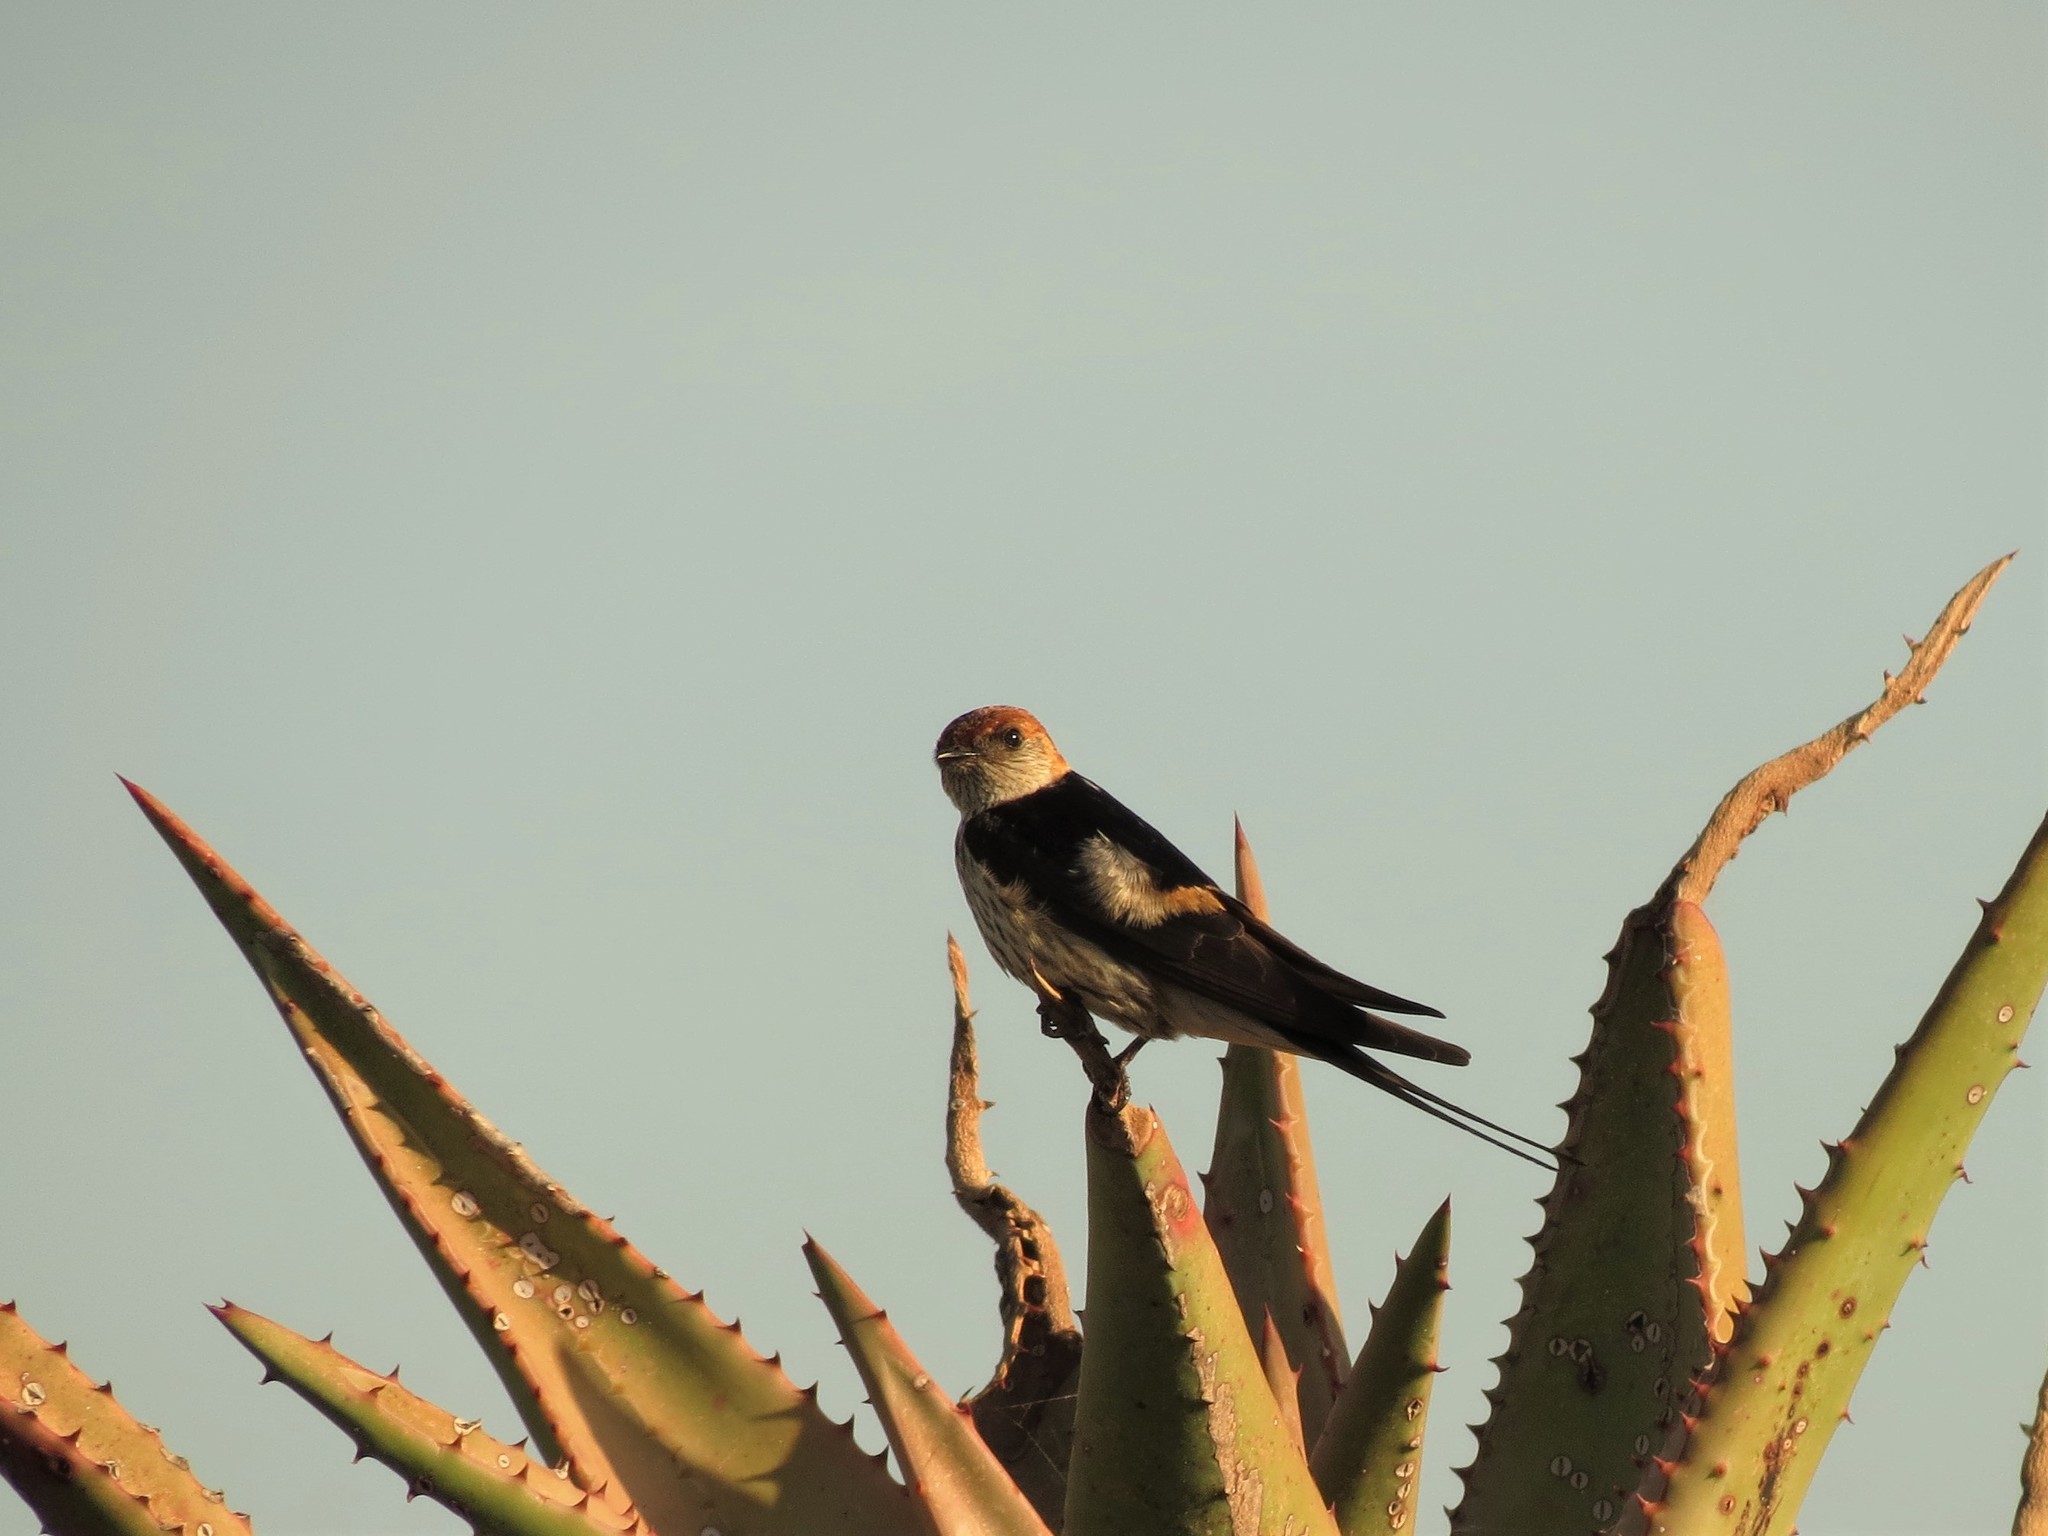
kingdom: Animalia
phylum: Chordata
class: Aves
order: Passeriformes
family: Hirundinidae
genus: Cecropis
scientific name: Cecropis cucullata
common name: Greater striped-swallow
